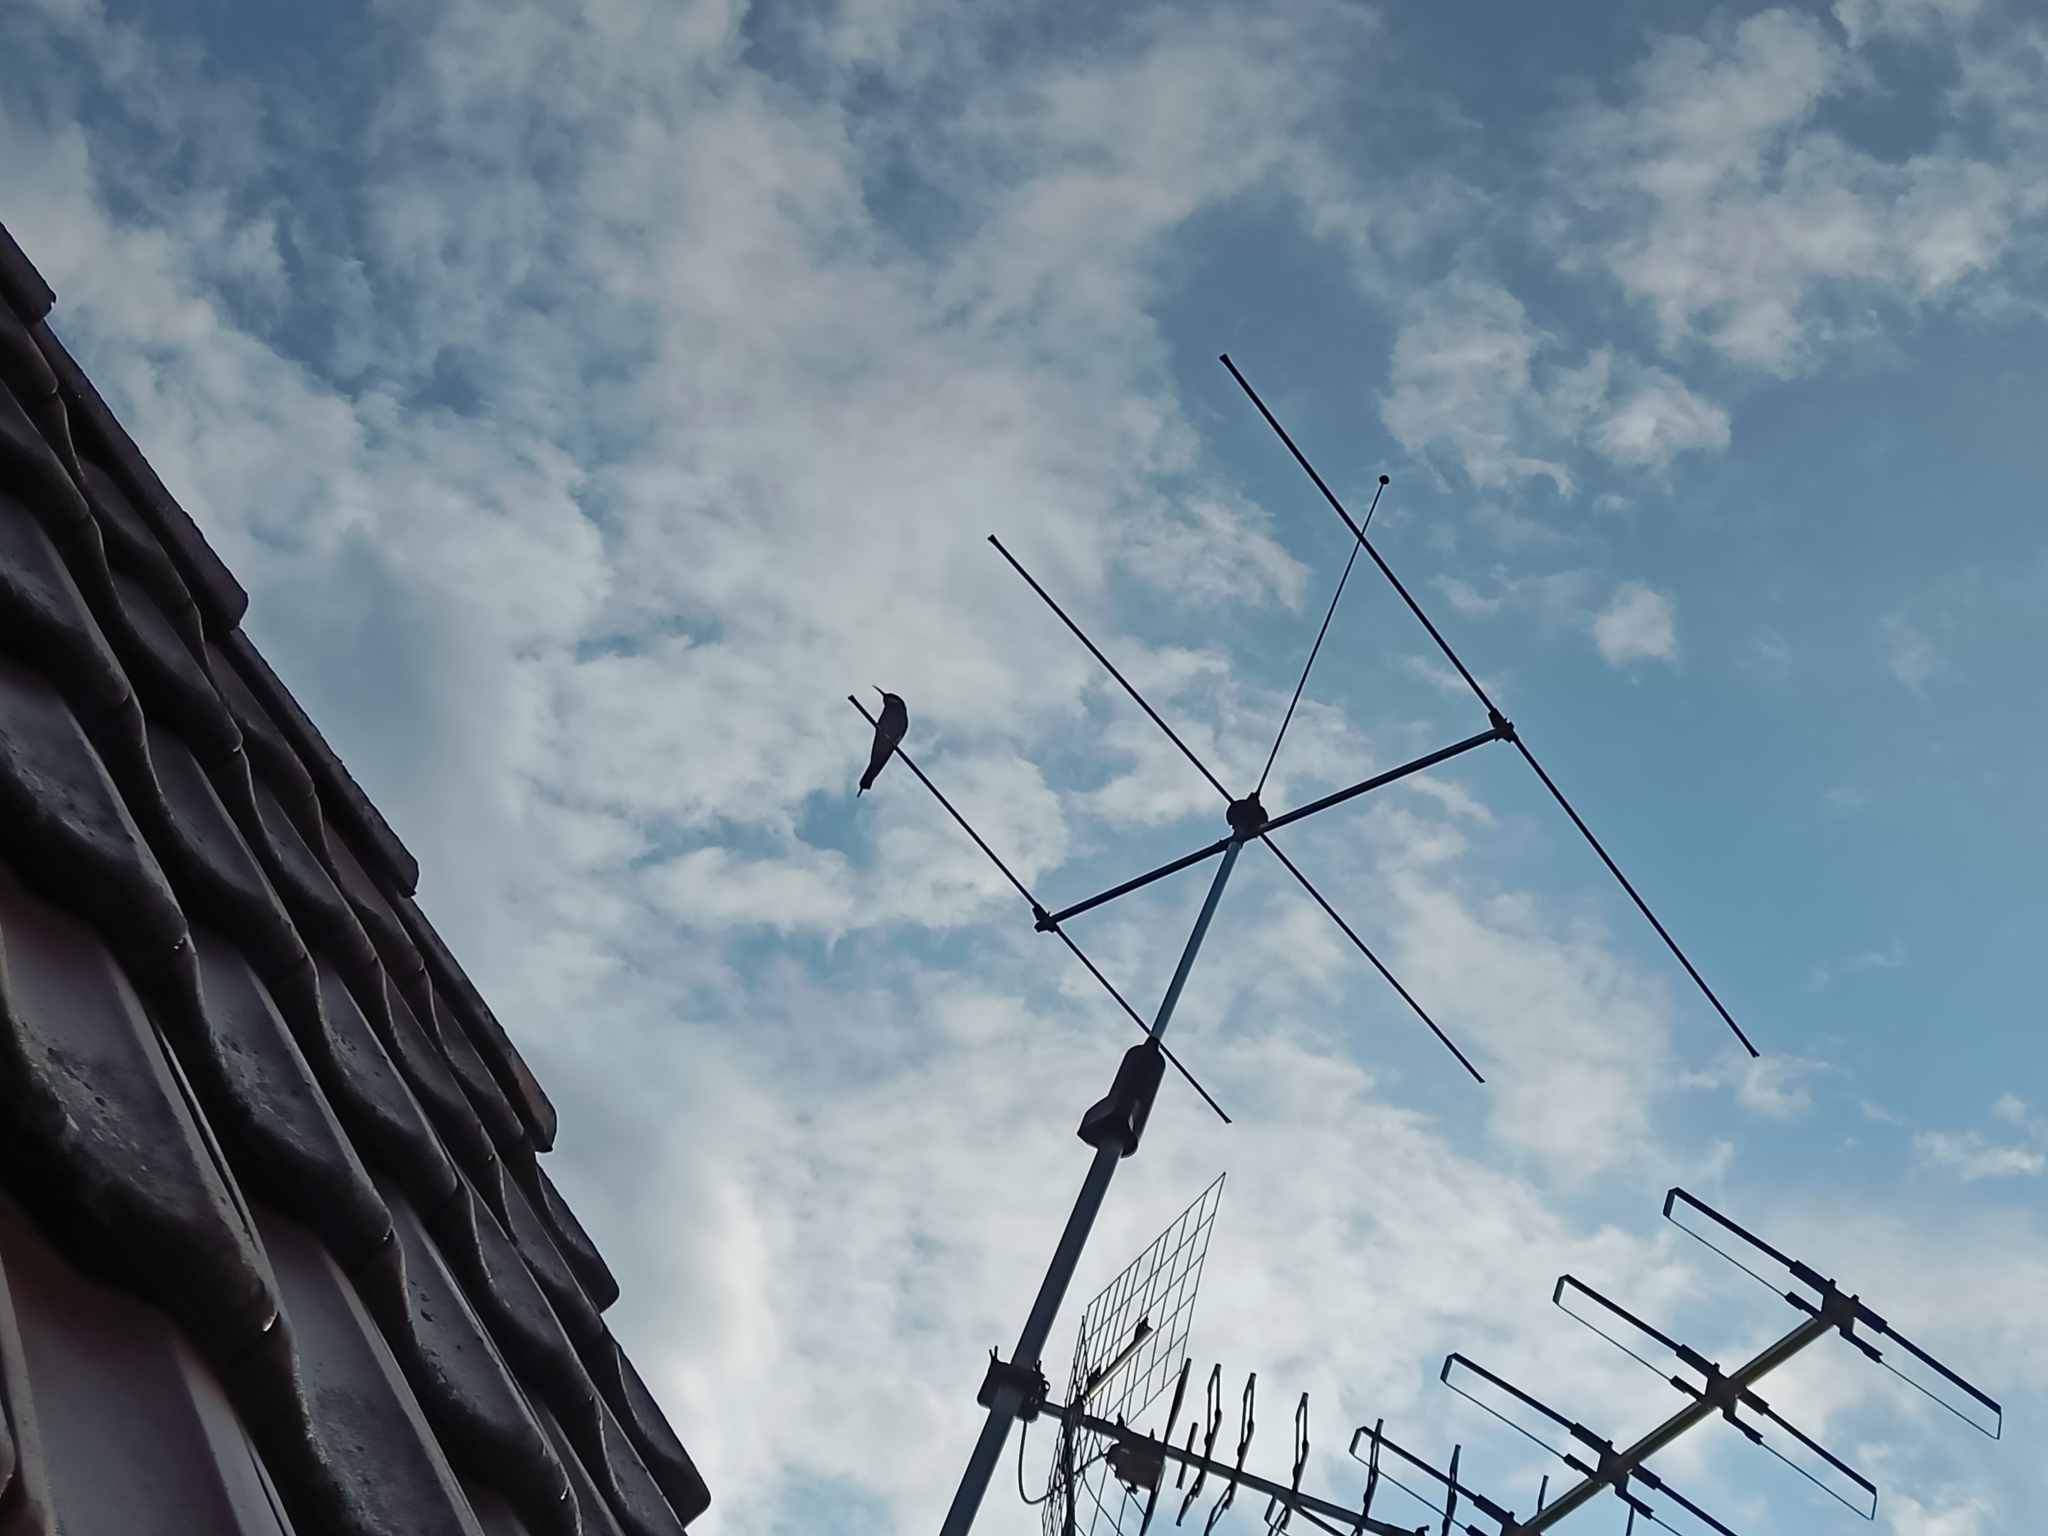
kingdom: Animalia
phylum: Chordata
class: Aves
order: Coraciiformes
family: Meropidae
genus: Merops
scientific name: Merops apiaster
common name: European bee-eater
